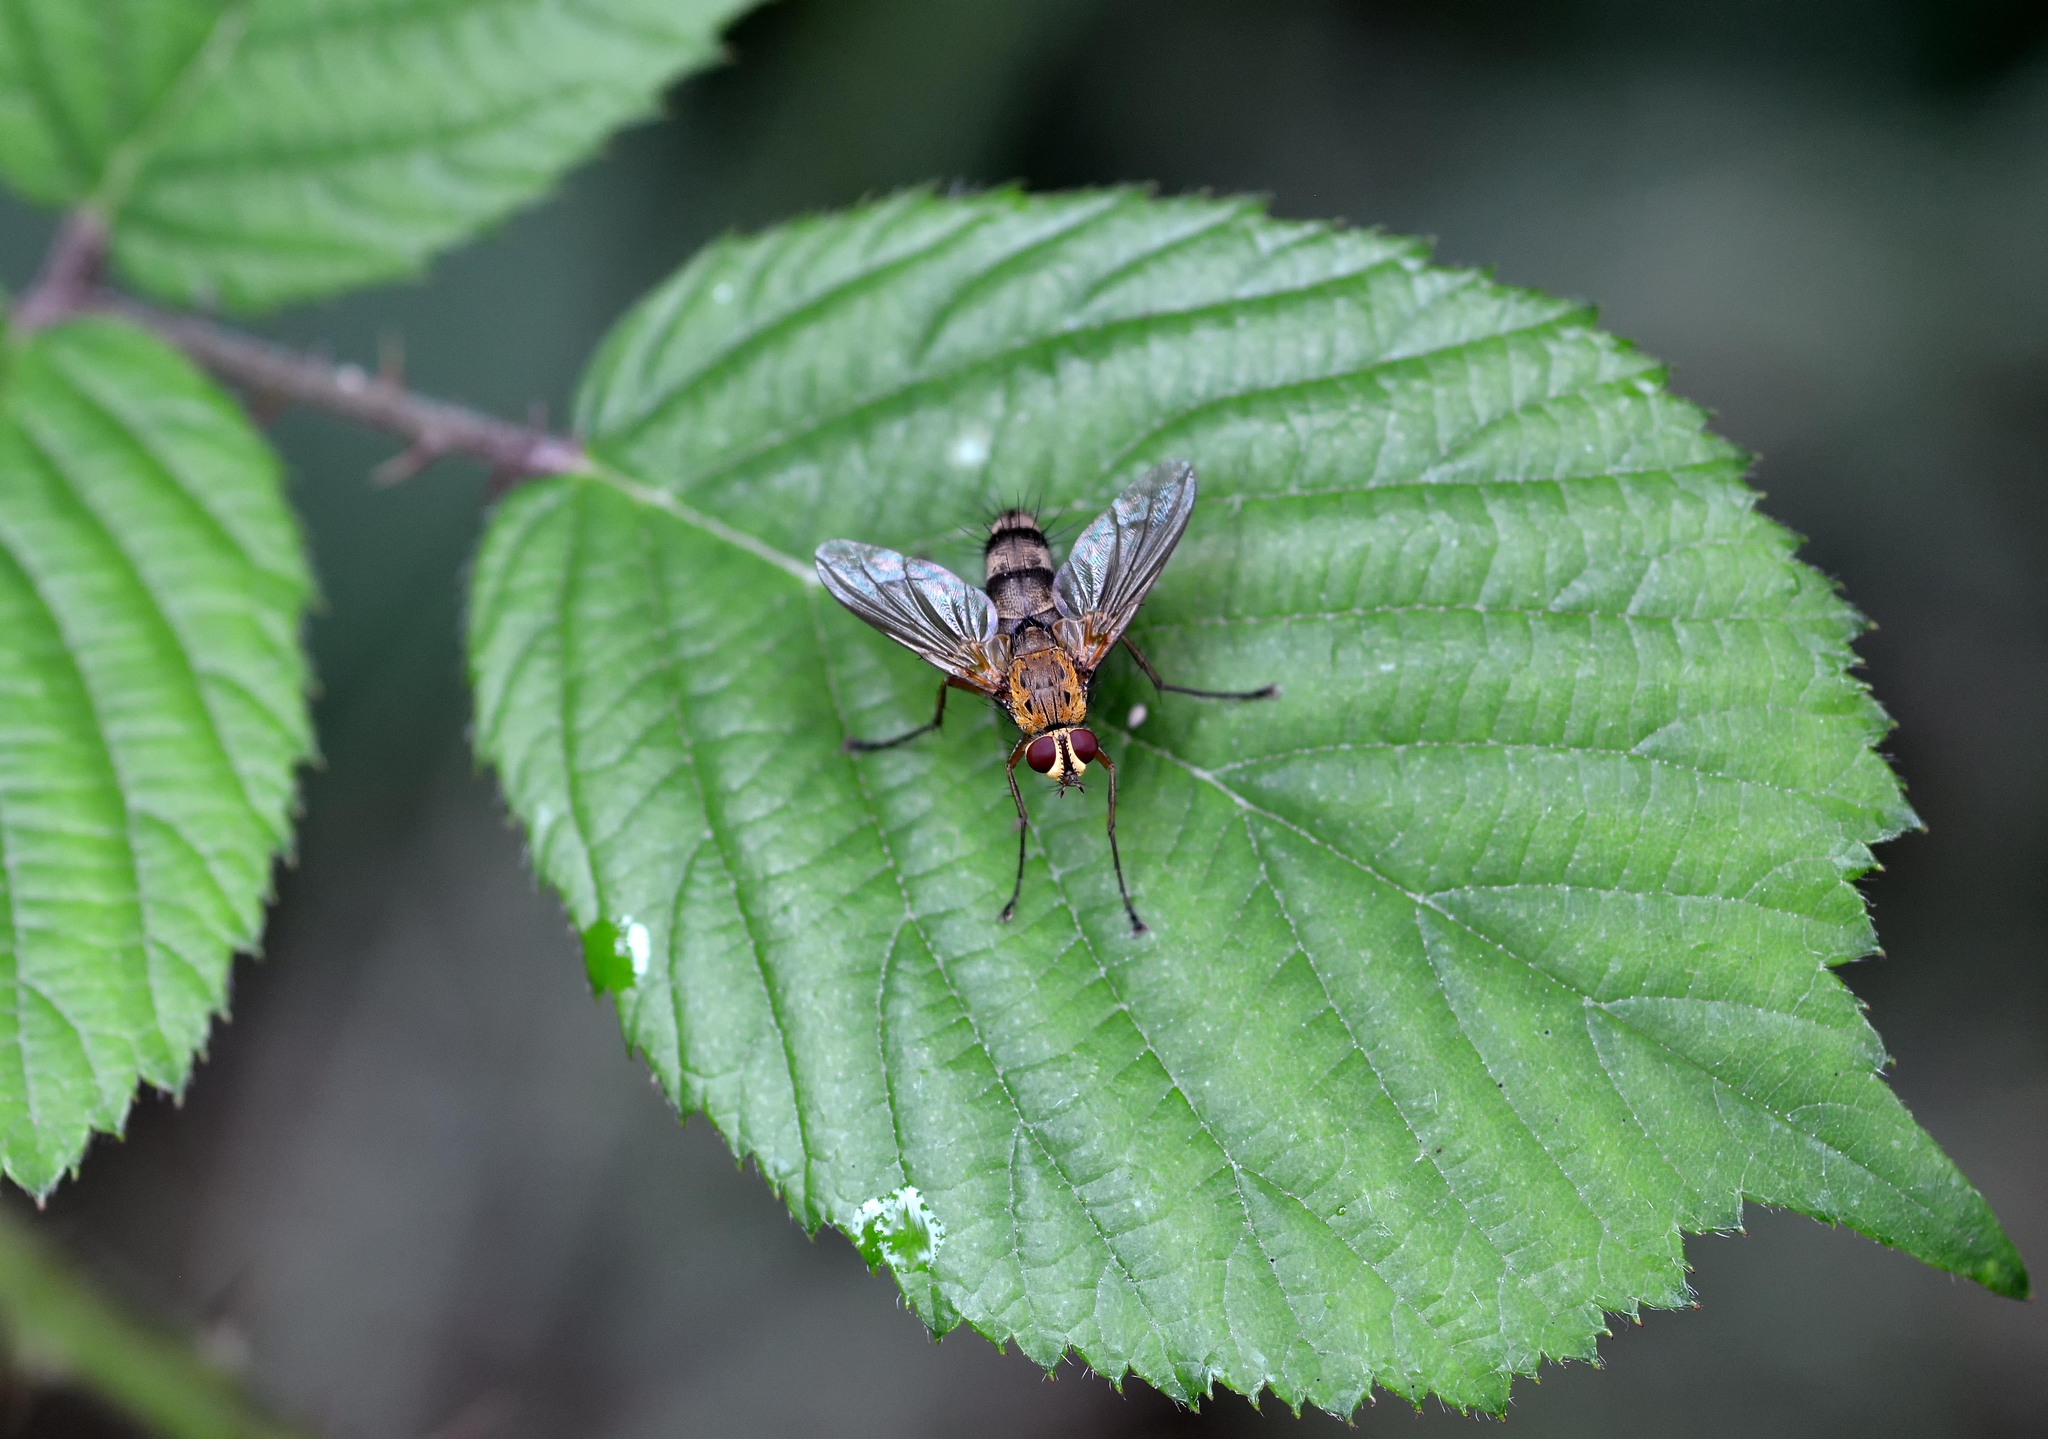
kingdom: Animalia
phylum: Arthropoda
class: Insecta
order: Diptera
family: Tachinidae
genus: Dexiosoma
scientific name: Dexiosoma caninum
